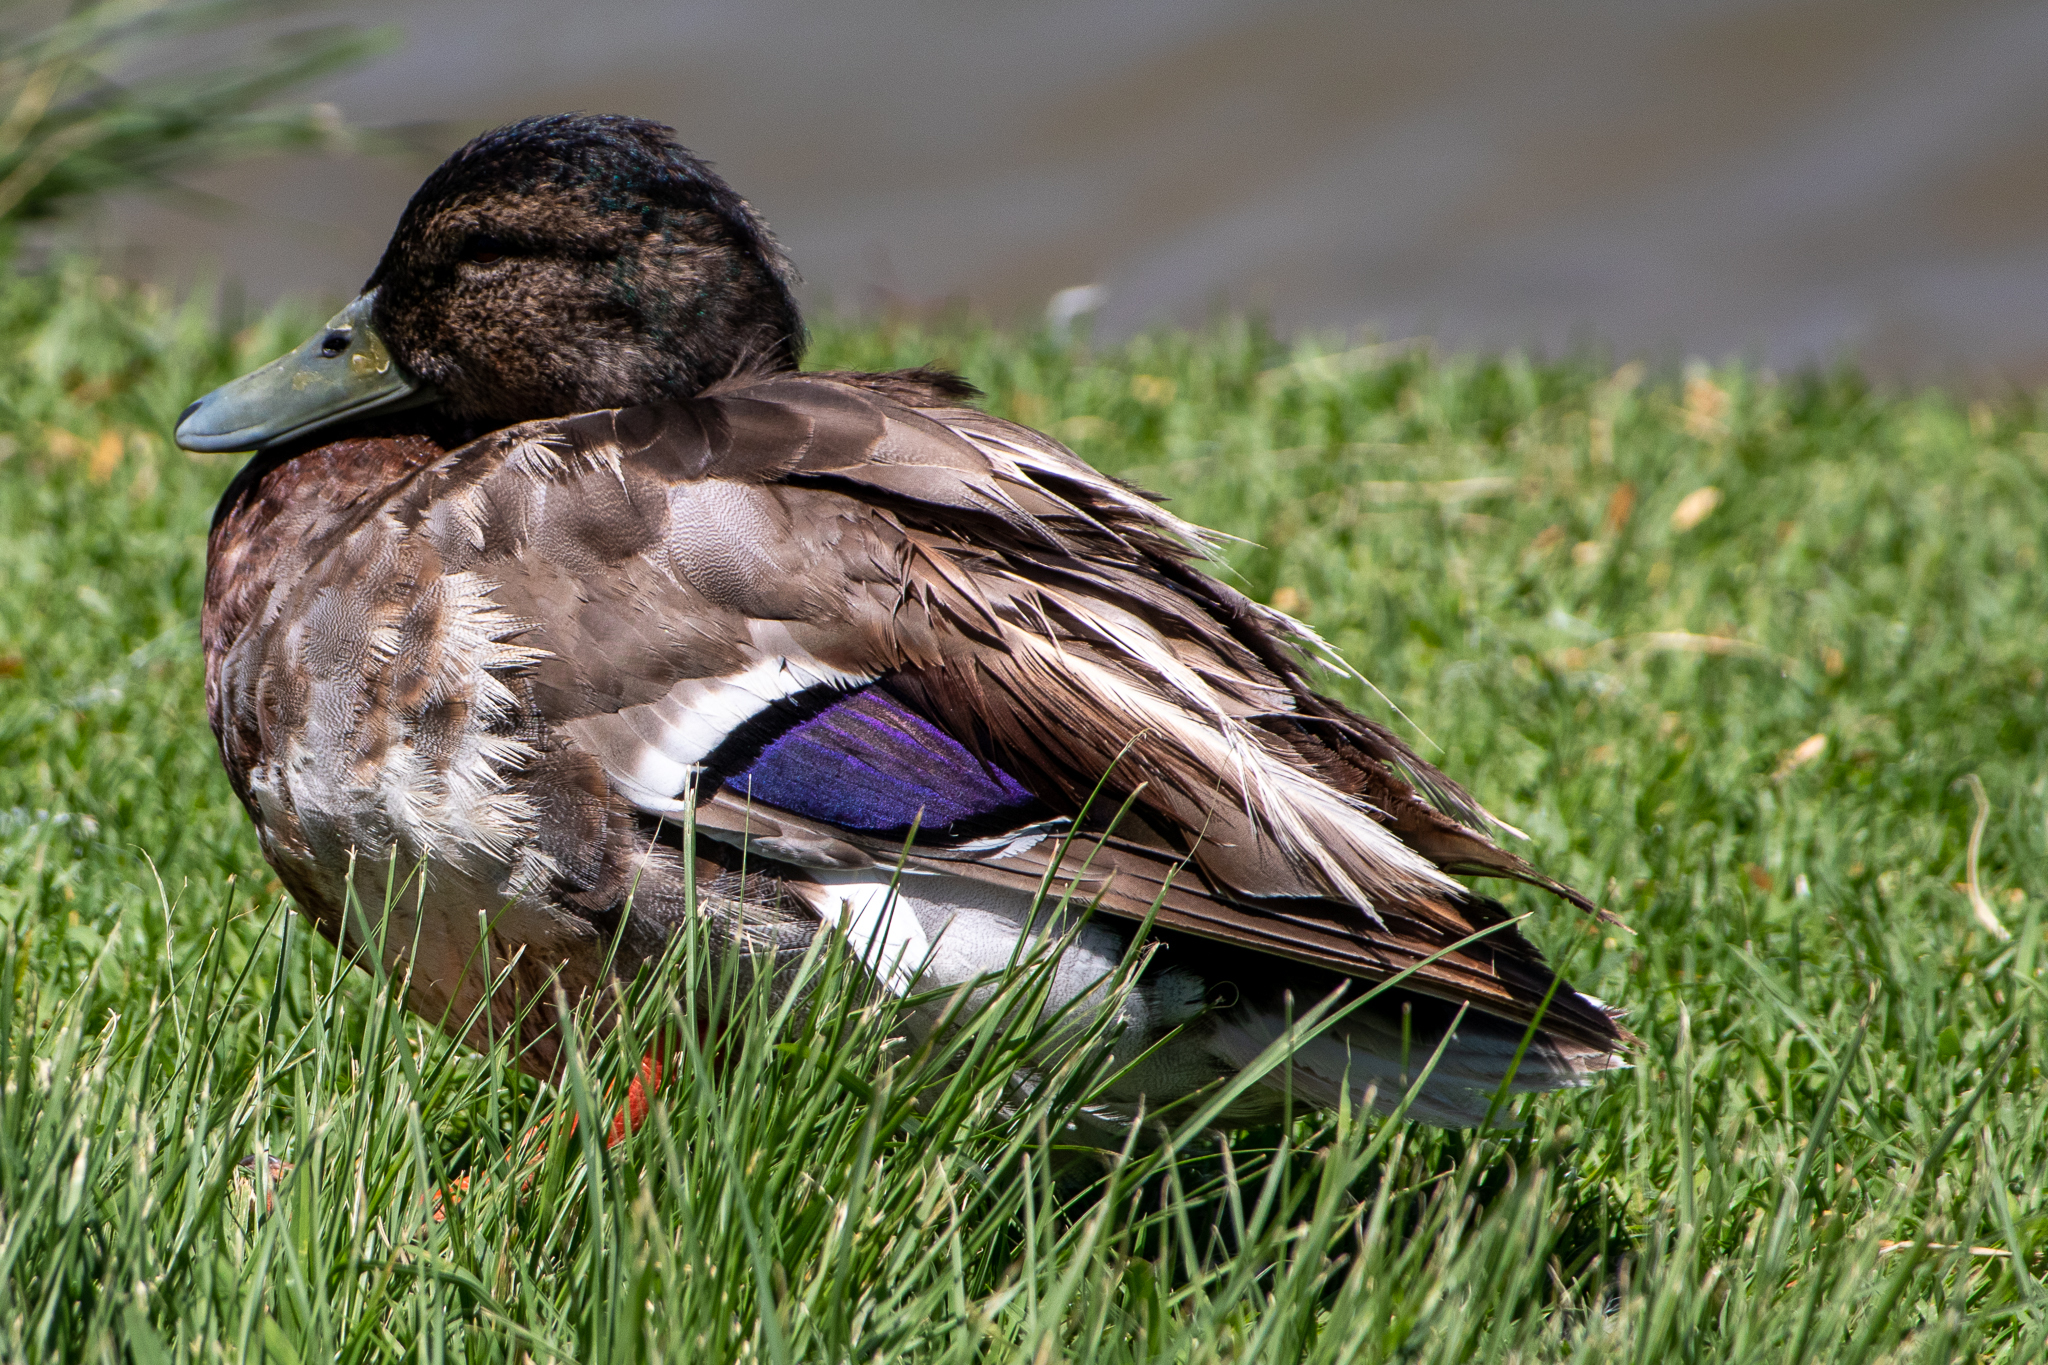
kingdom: Animalia
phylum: Chordata
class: Aves
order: Anseriformes
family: Anatidae
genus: Anas
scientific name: Anas platyrhynchos
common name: Mallard
